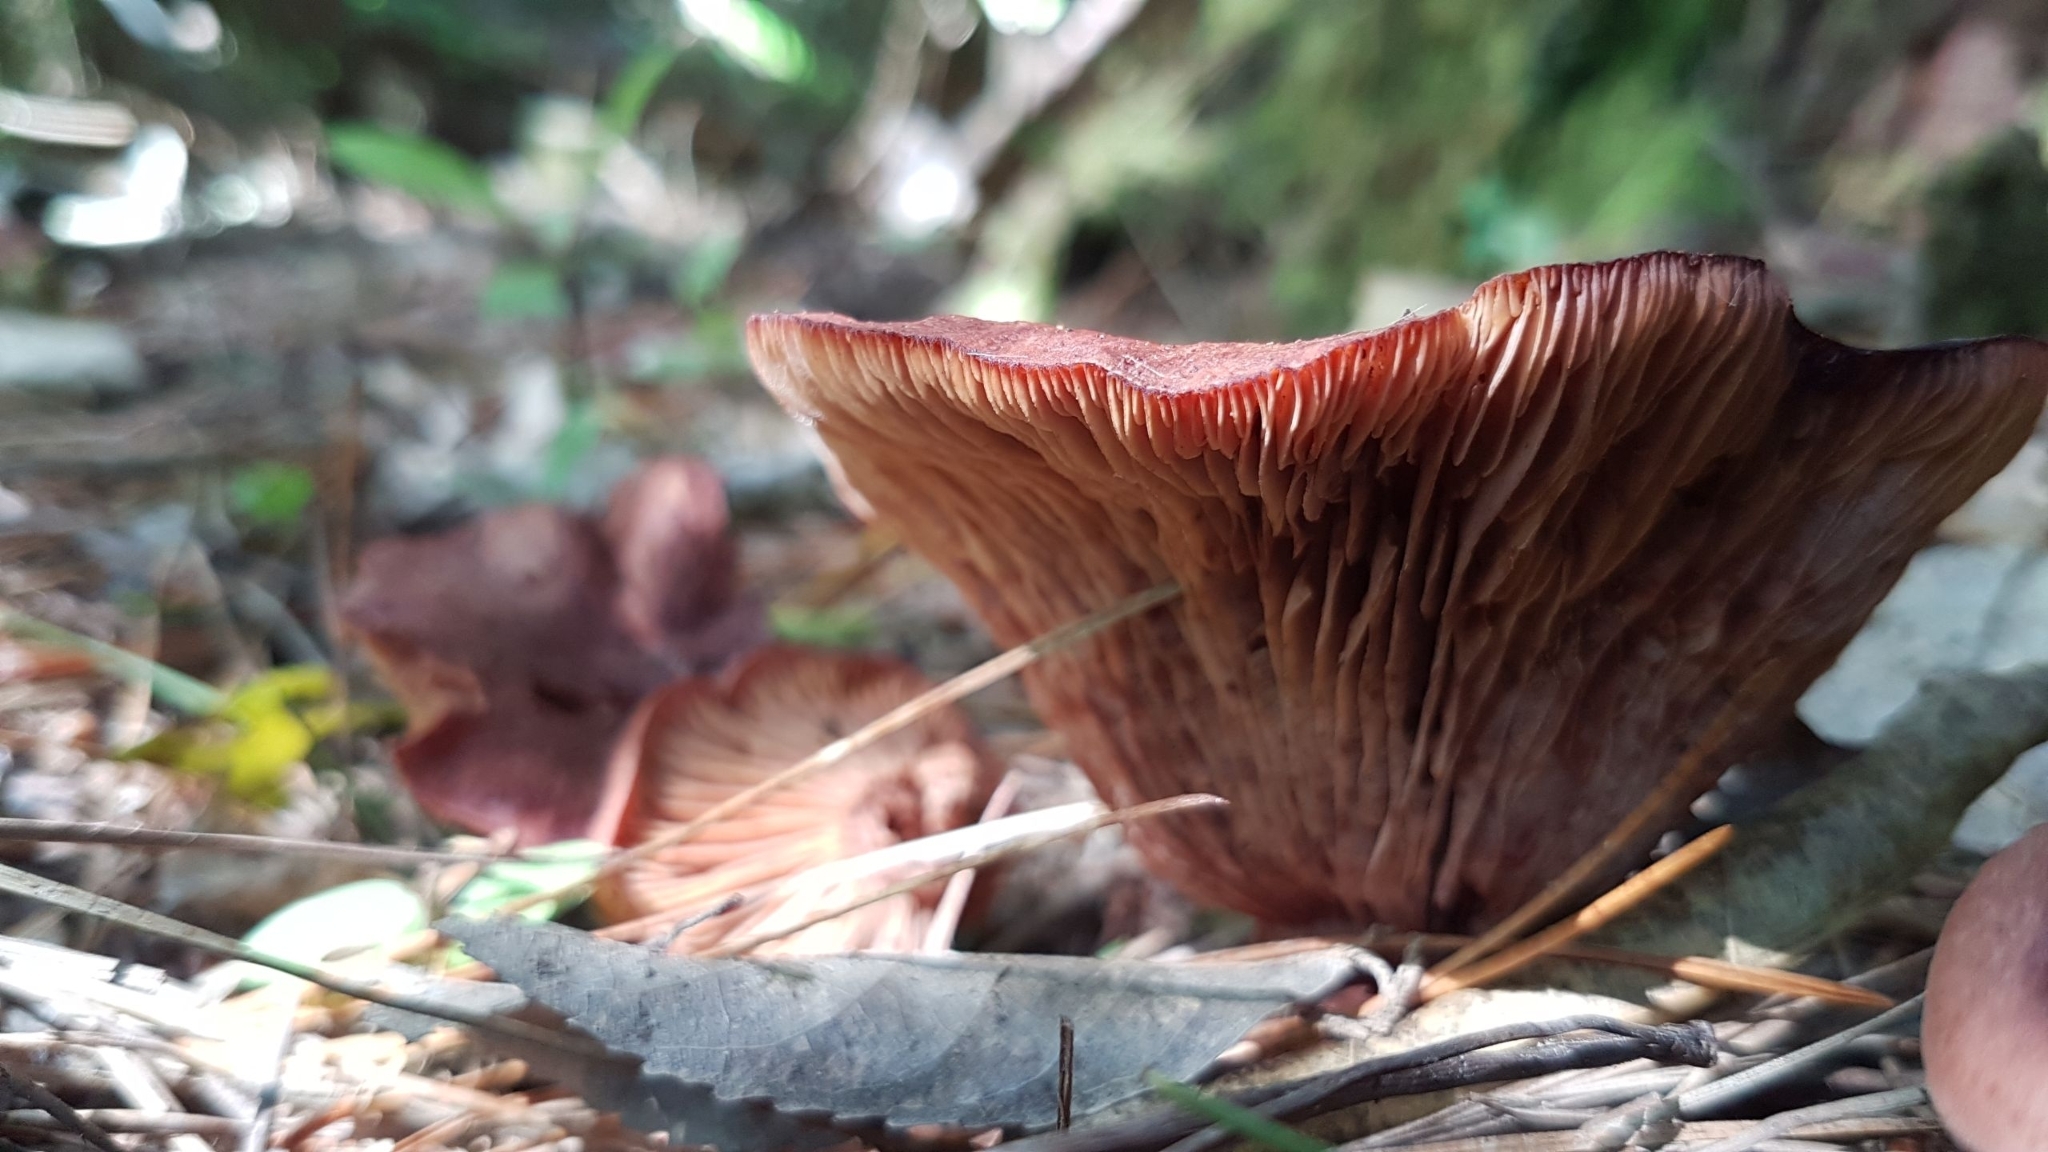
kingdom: Fungi
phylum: Basidiomycota
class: Agaricomycetes
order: Russulales
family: Russulaceae
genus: Lactarius
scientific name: Lactarius rufus
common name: Rufous milk-cap
